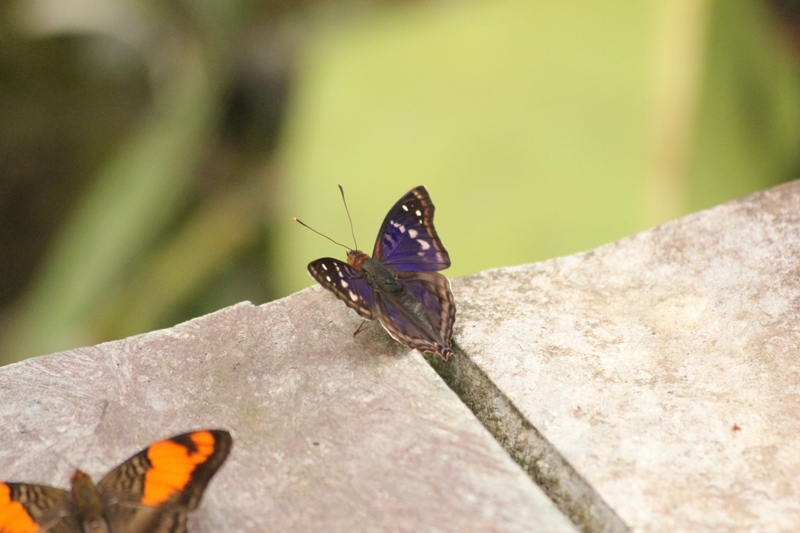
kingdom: Animalia
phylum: Arthropoda
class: Insecta
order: Lepidoptera
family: Nymphalidae
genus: Doxocopa
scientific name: Doxocopa agathina
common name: Agathina emperor
